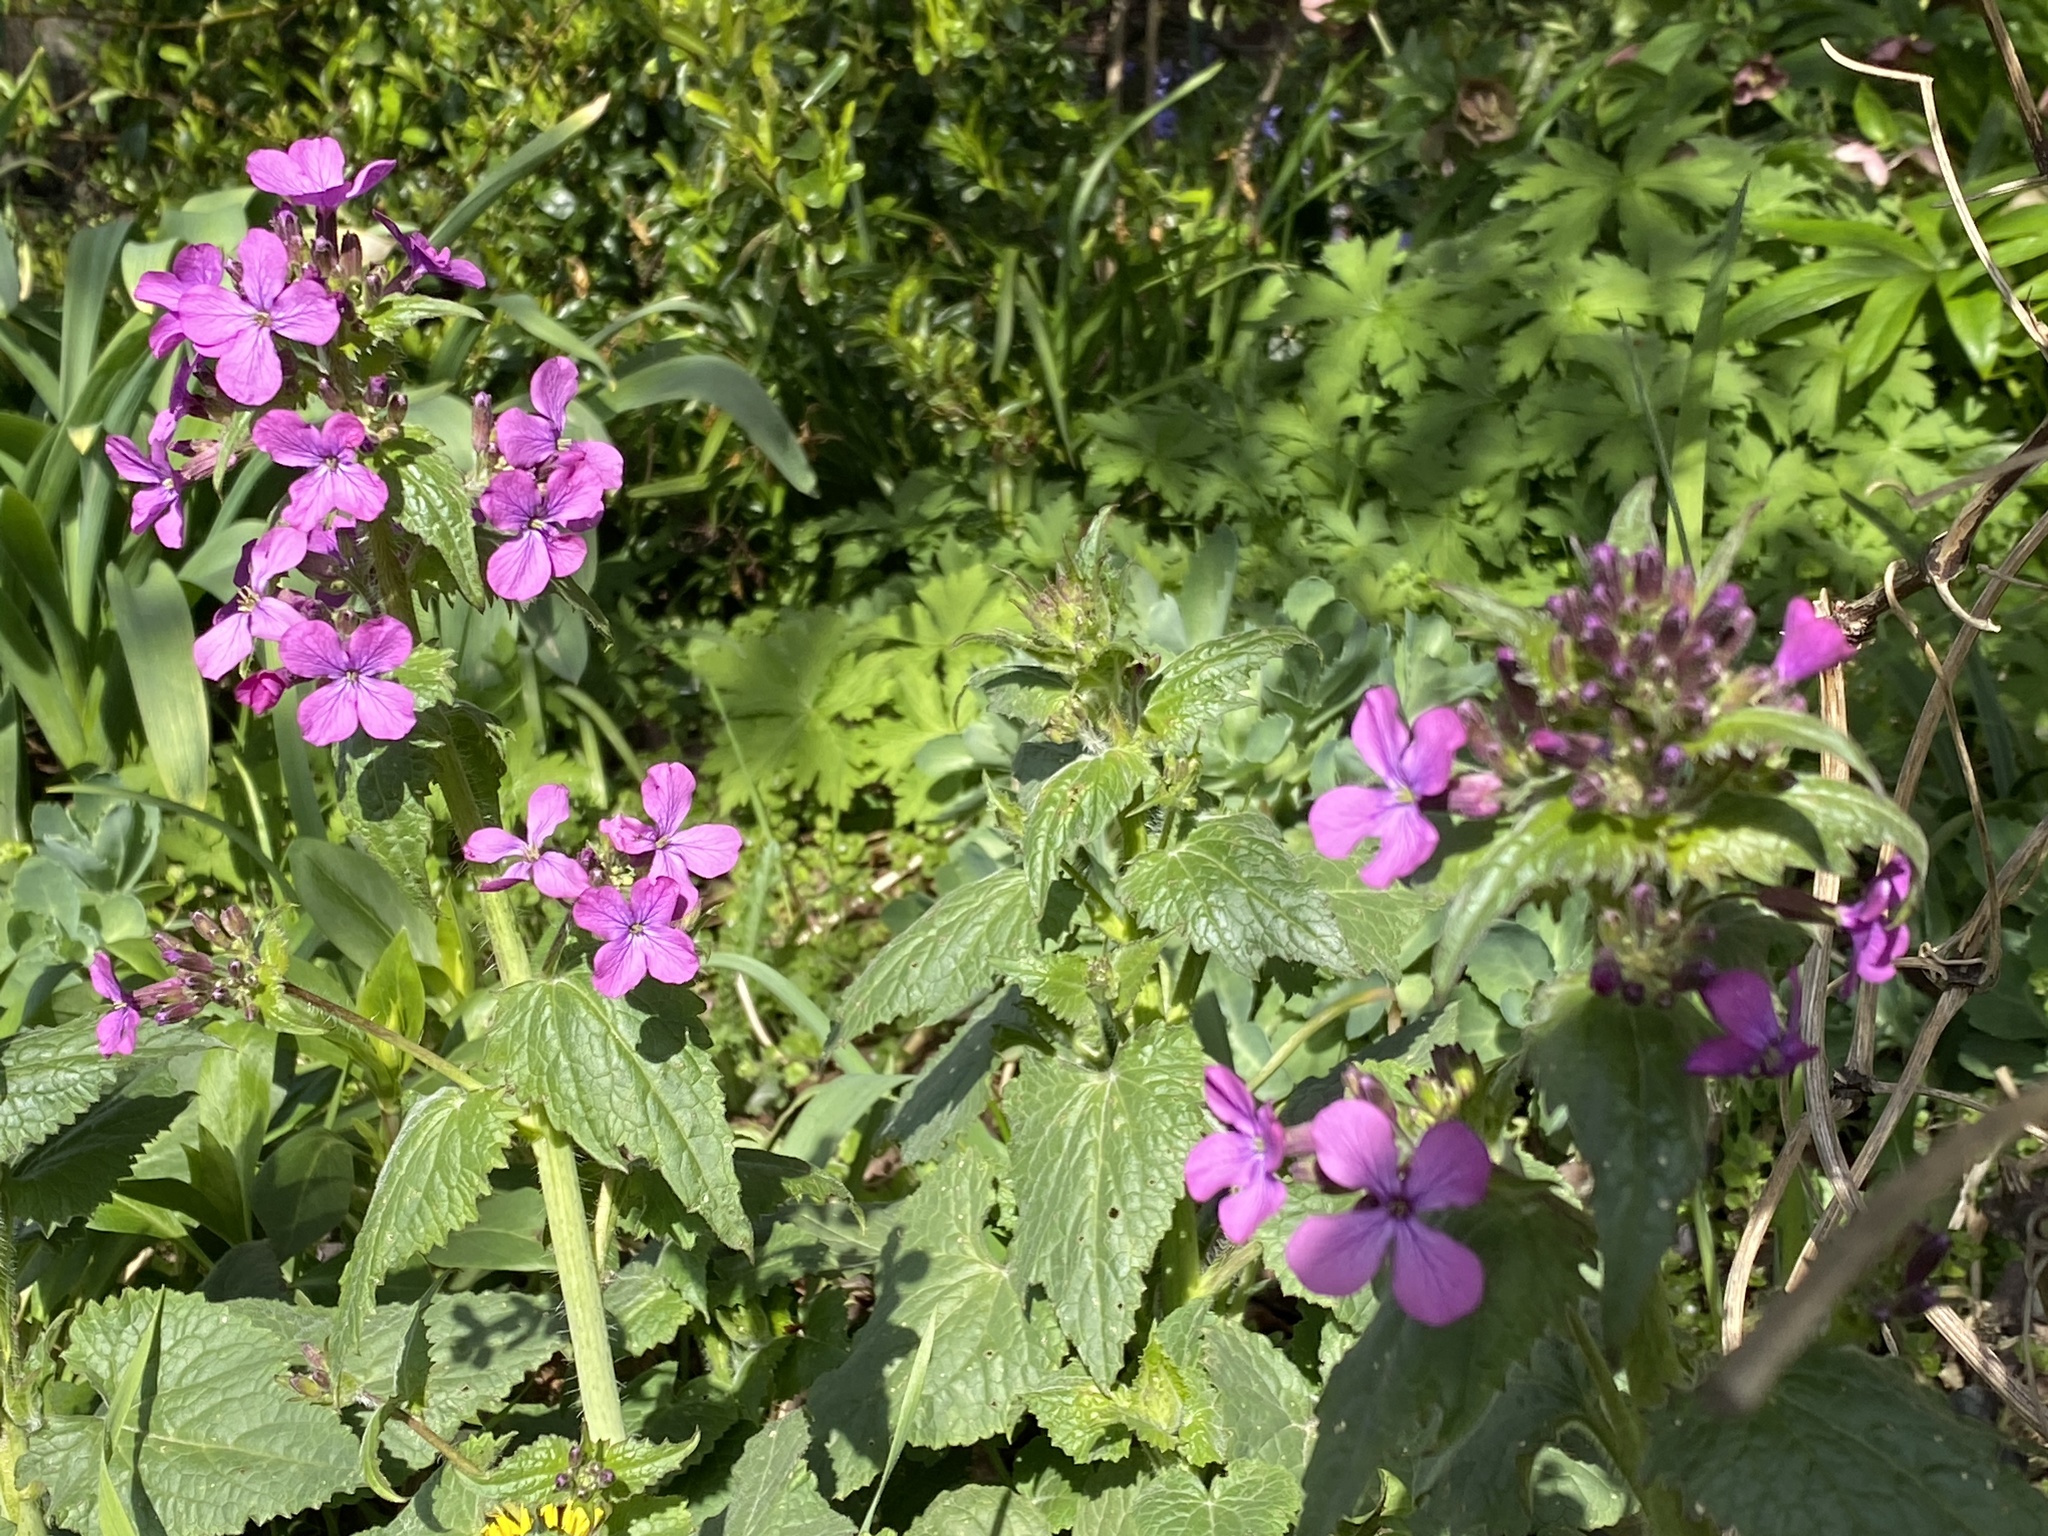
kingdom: Plantae
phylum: Tracheophyta
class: Magnoliopsida
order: Brassicales
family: Brassicaceae
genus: Lunaria
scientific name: Lunaria annua
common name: Honesty
